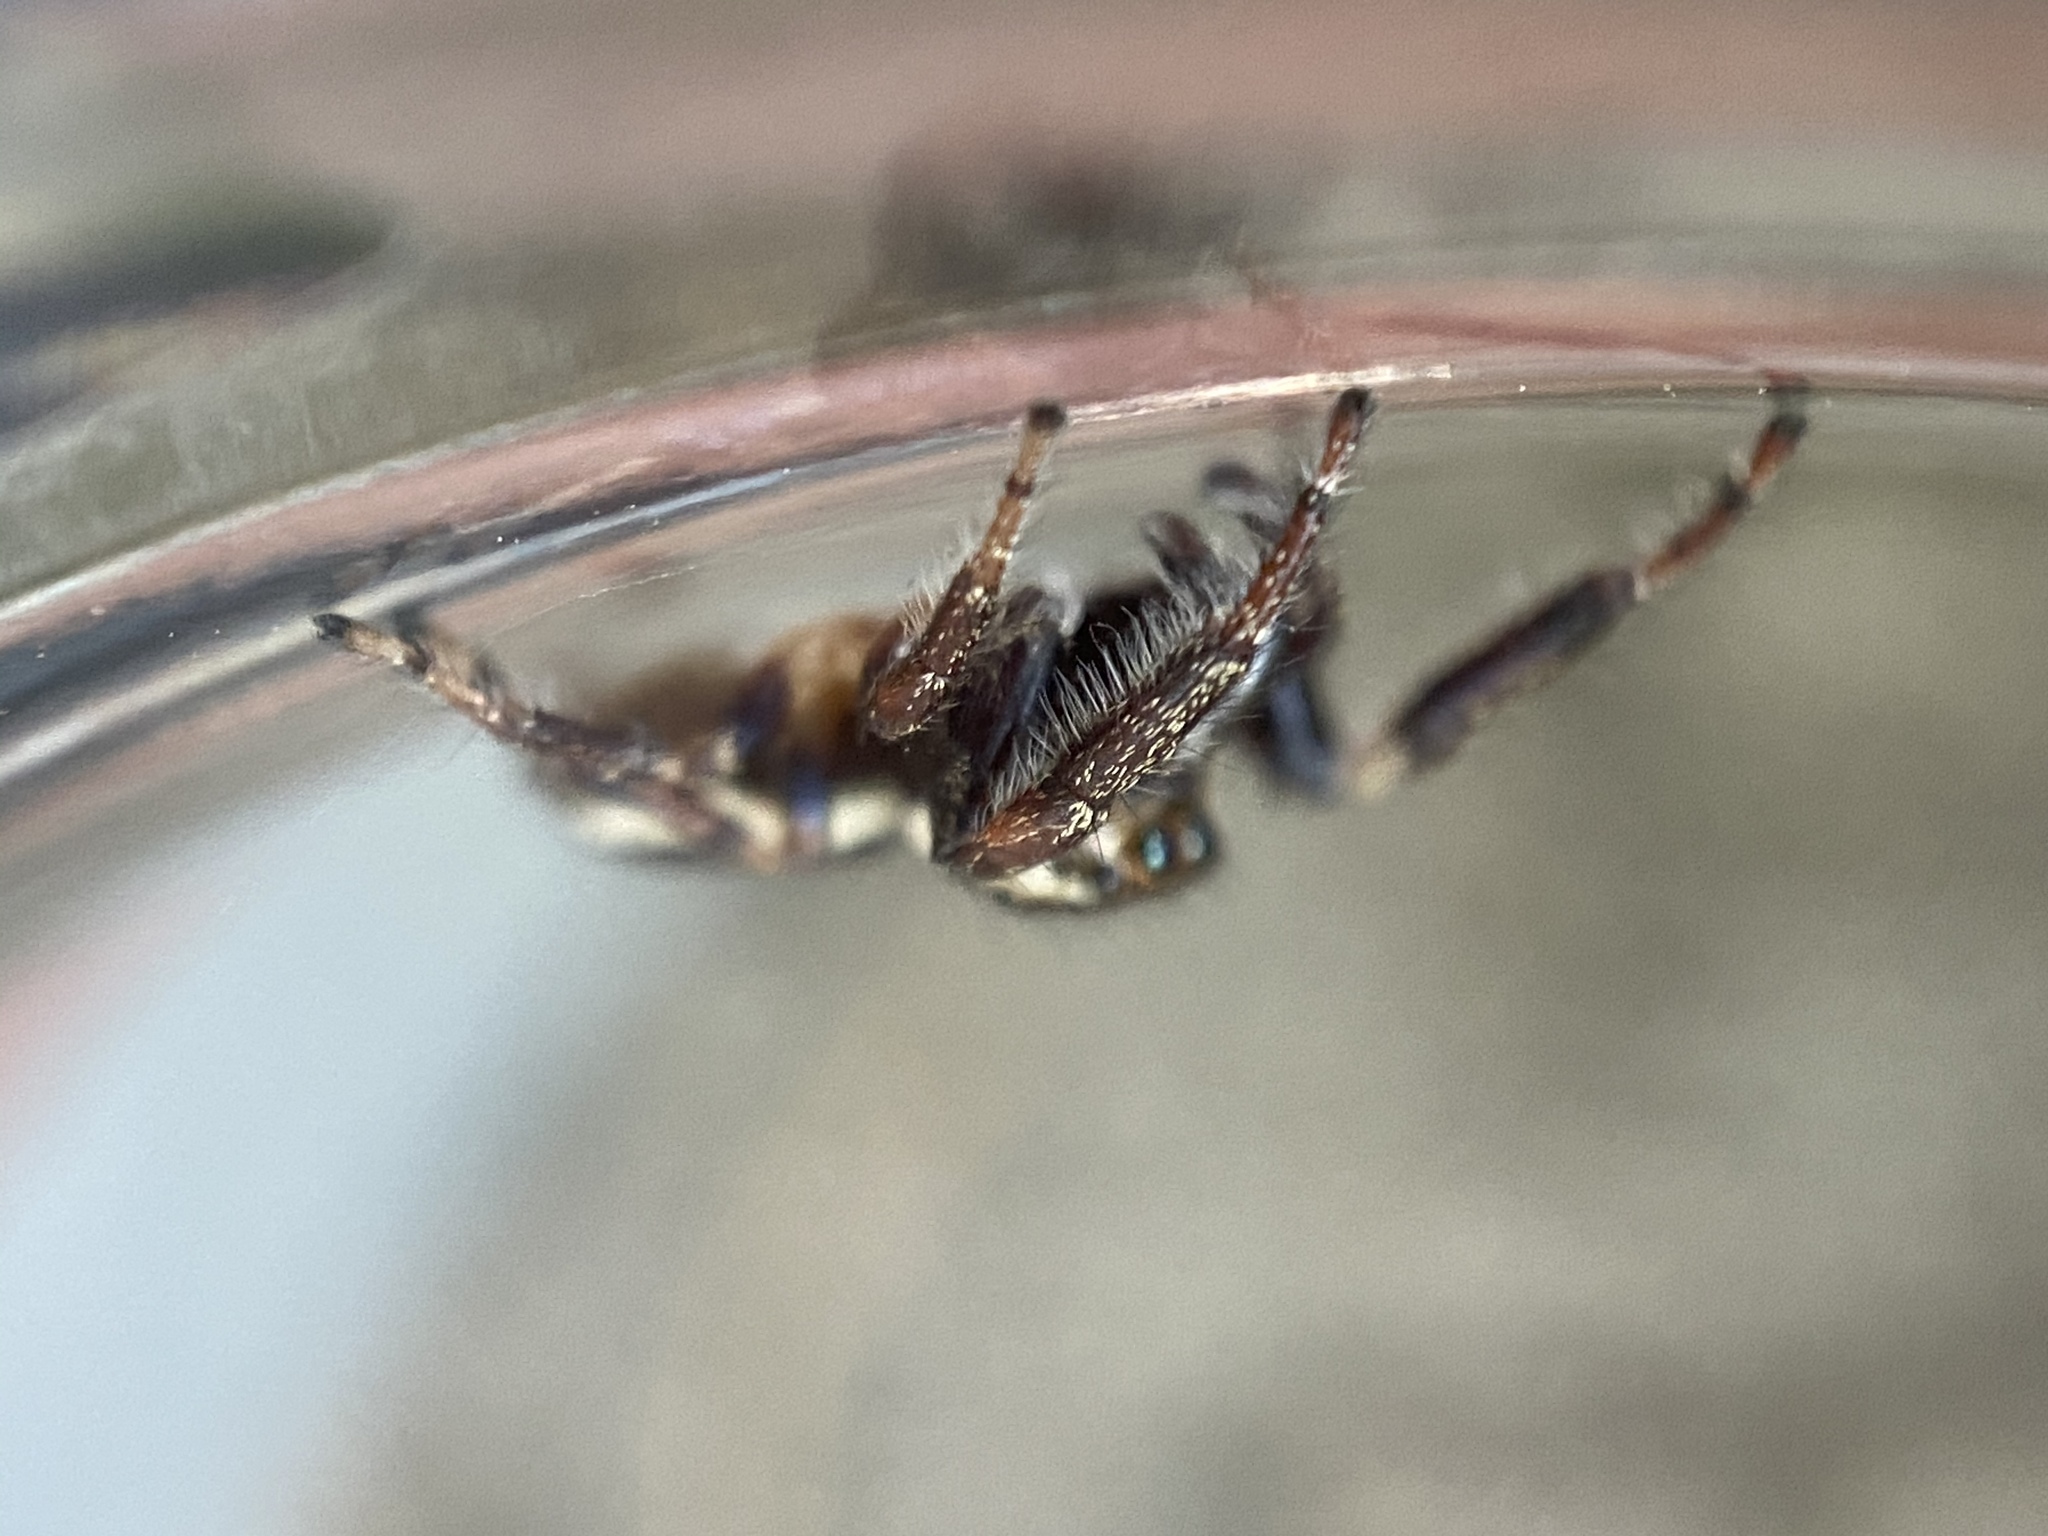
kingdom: Animalia
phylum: Arthropoda
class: Arachnida
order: Araneae
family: Salticidae
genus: Eris
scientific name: Eris militaris
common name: Bronze jumper
